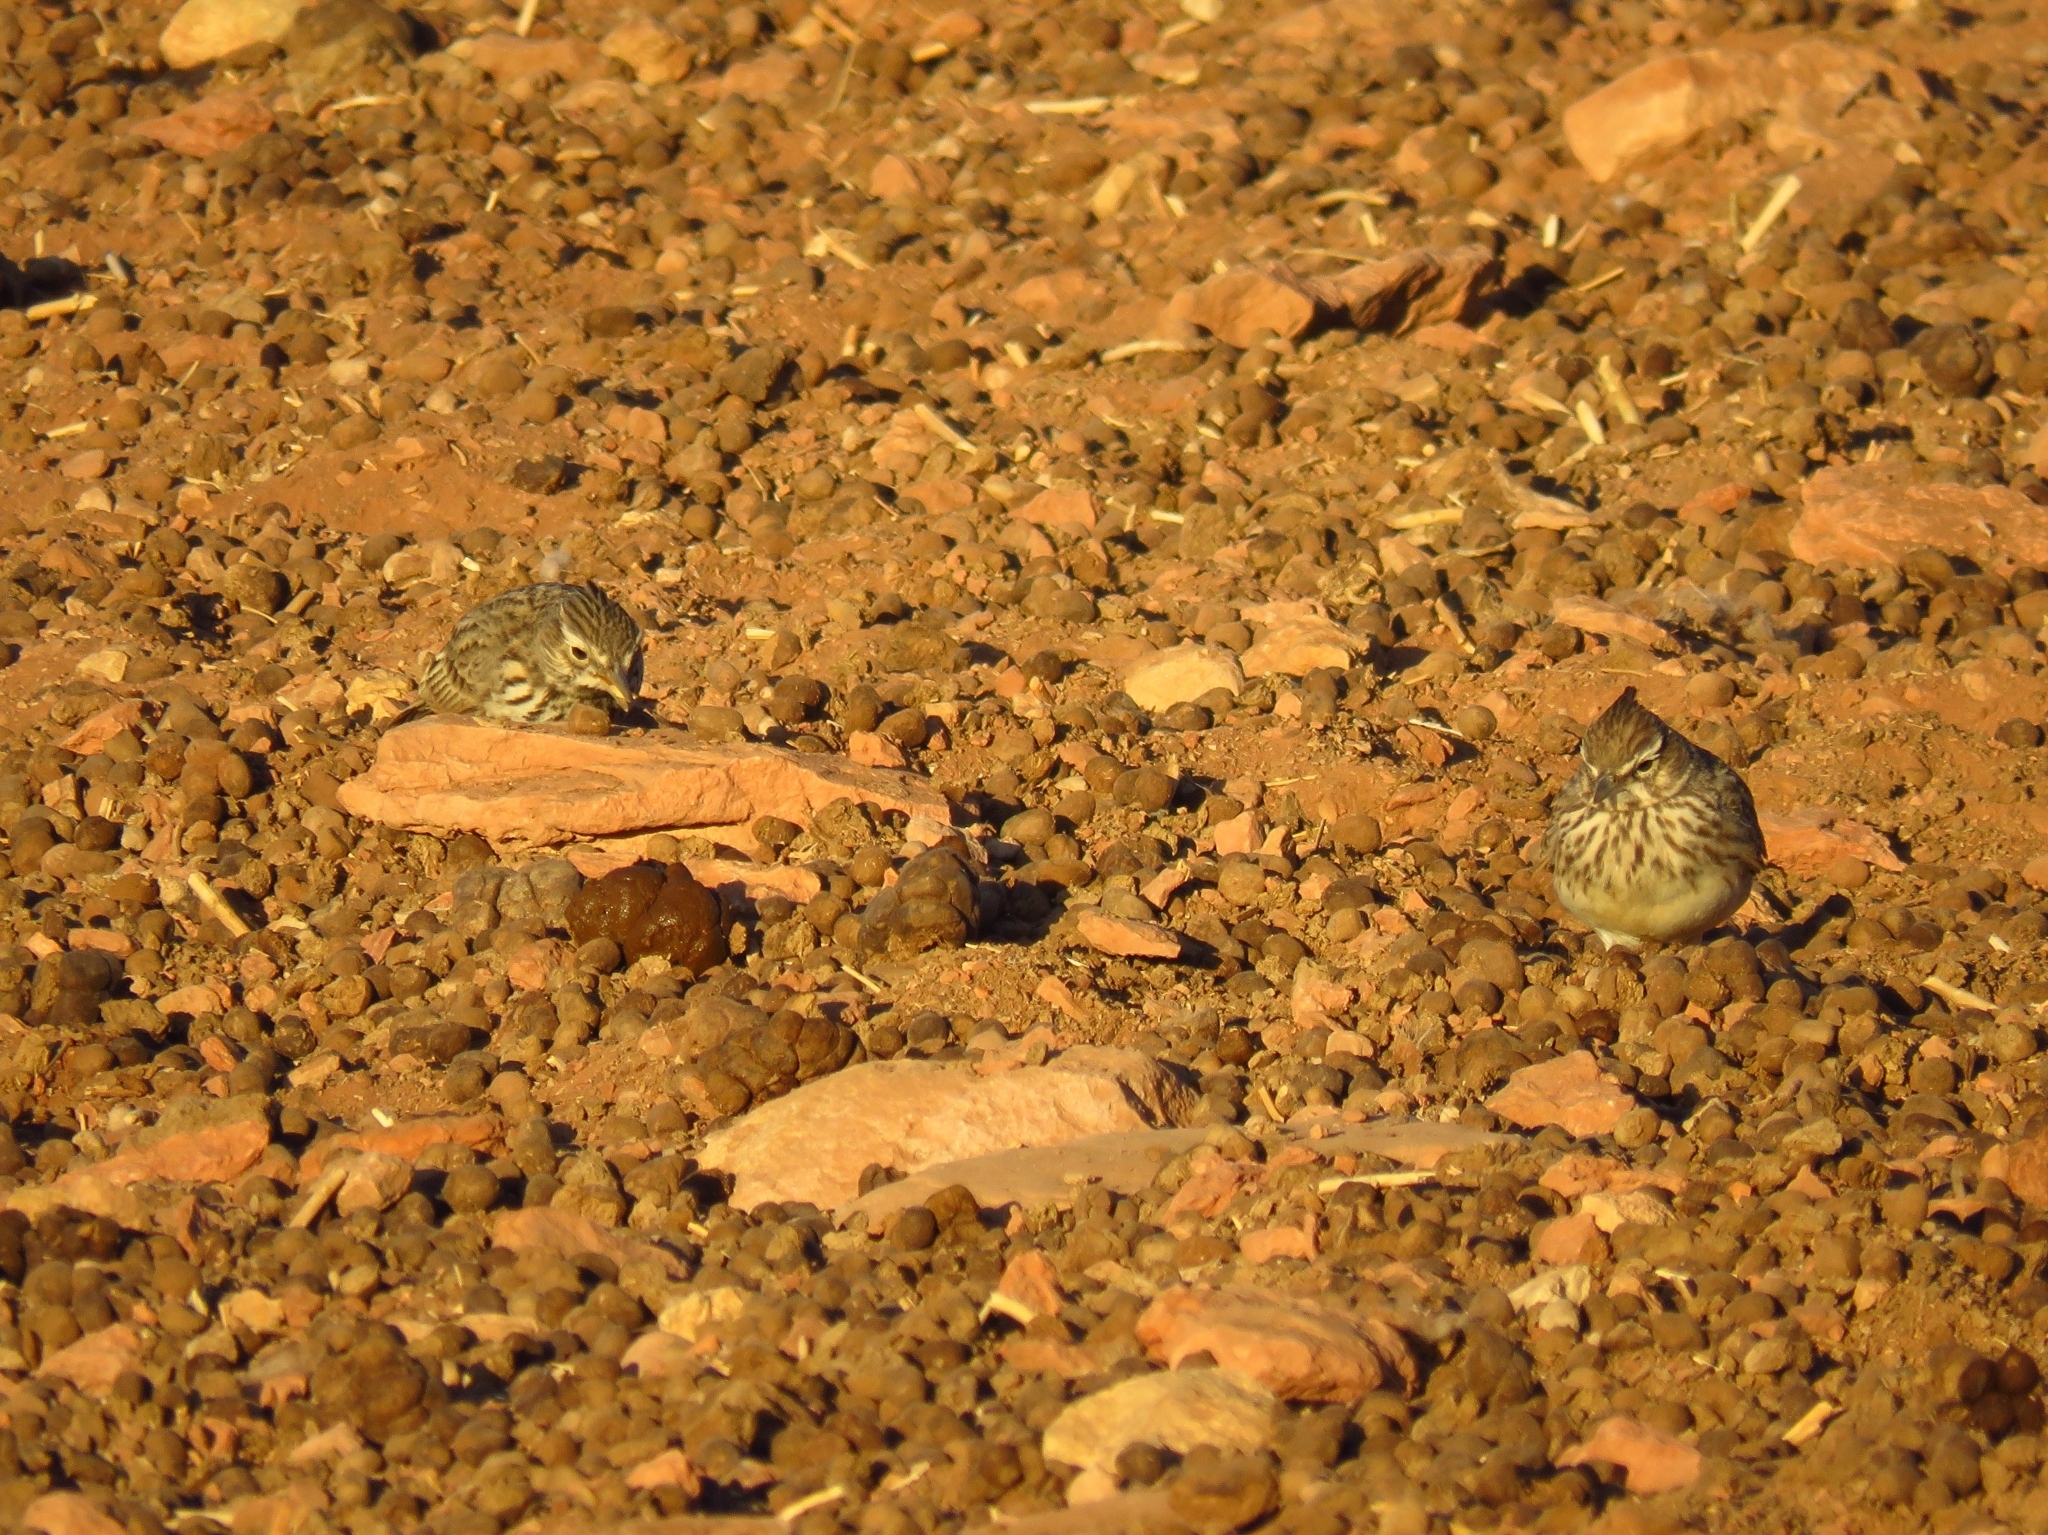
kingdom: Animalia
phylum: Chordata
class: Aves
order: Passeriformes
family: Alaudidae
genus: Galerida
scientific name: Galerida theklae
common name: Thekla lark
